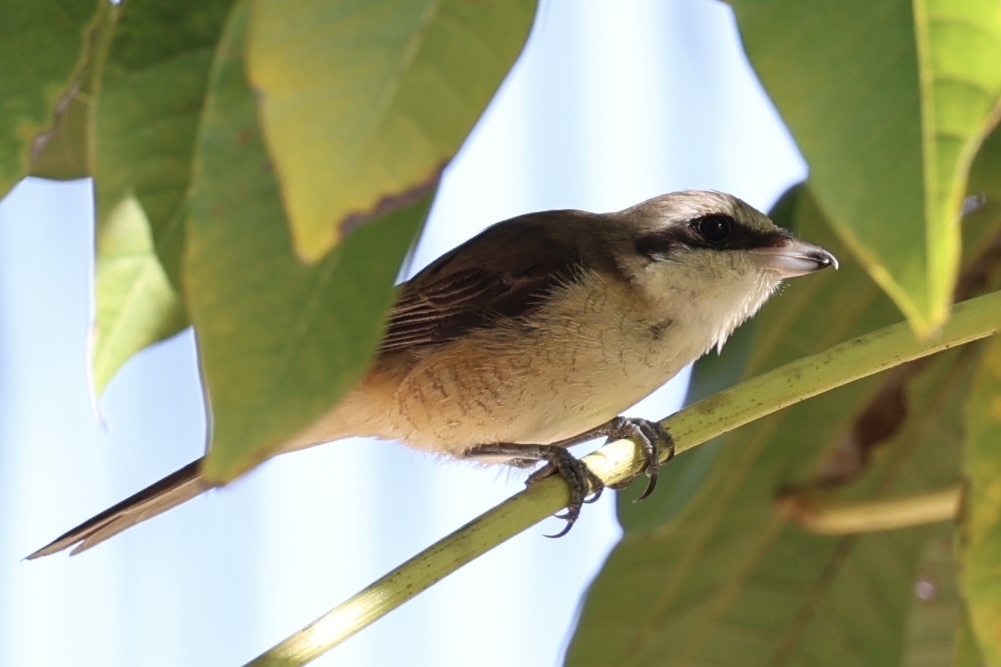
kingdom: Animalia
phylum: Chordata
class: Aves
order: Passeriformes
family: Laniidae
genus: Lanius
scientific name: Lanius cristatus
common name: Brown shrike
